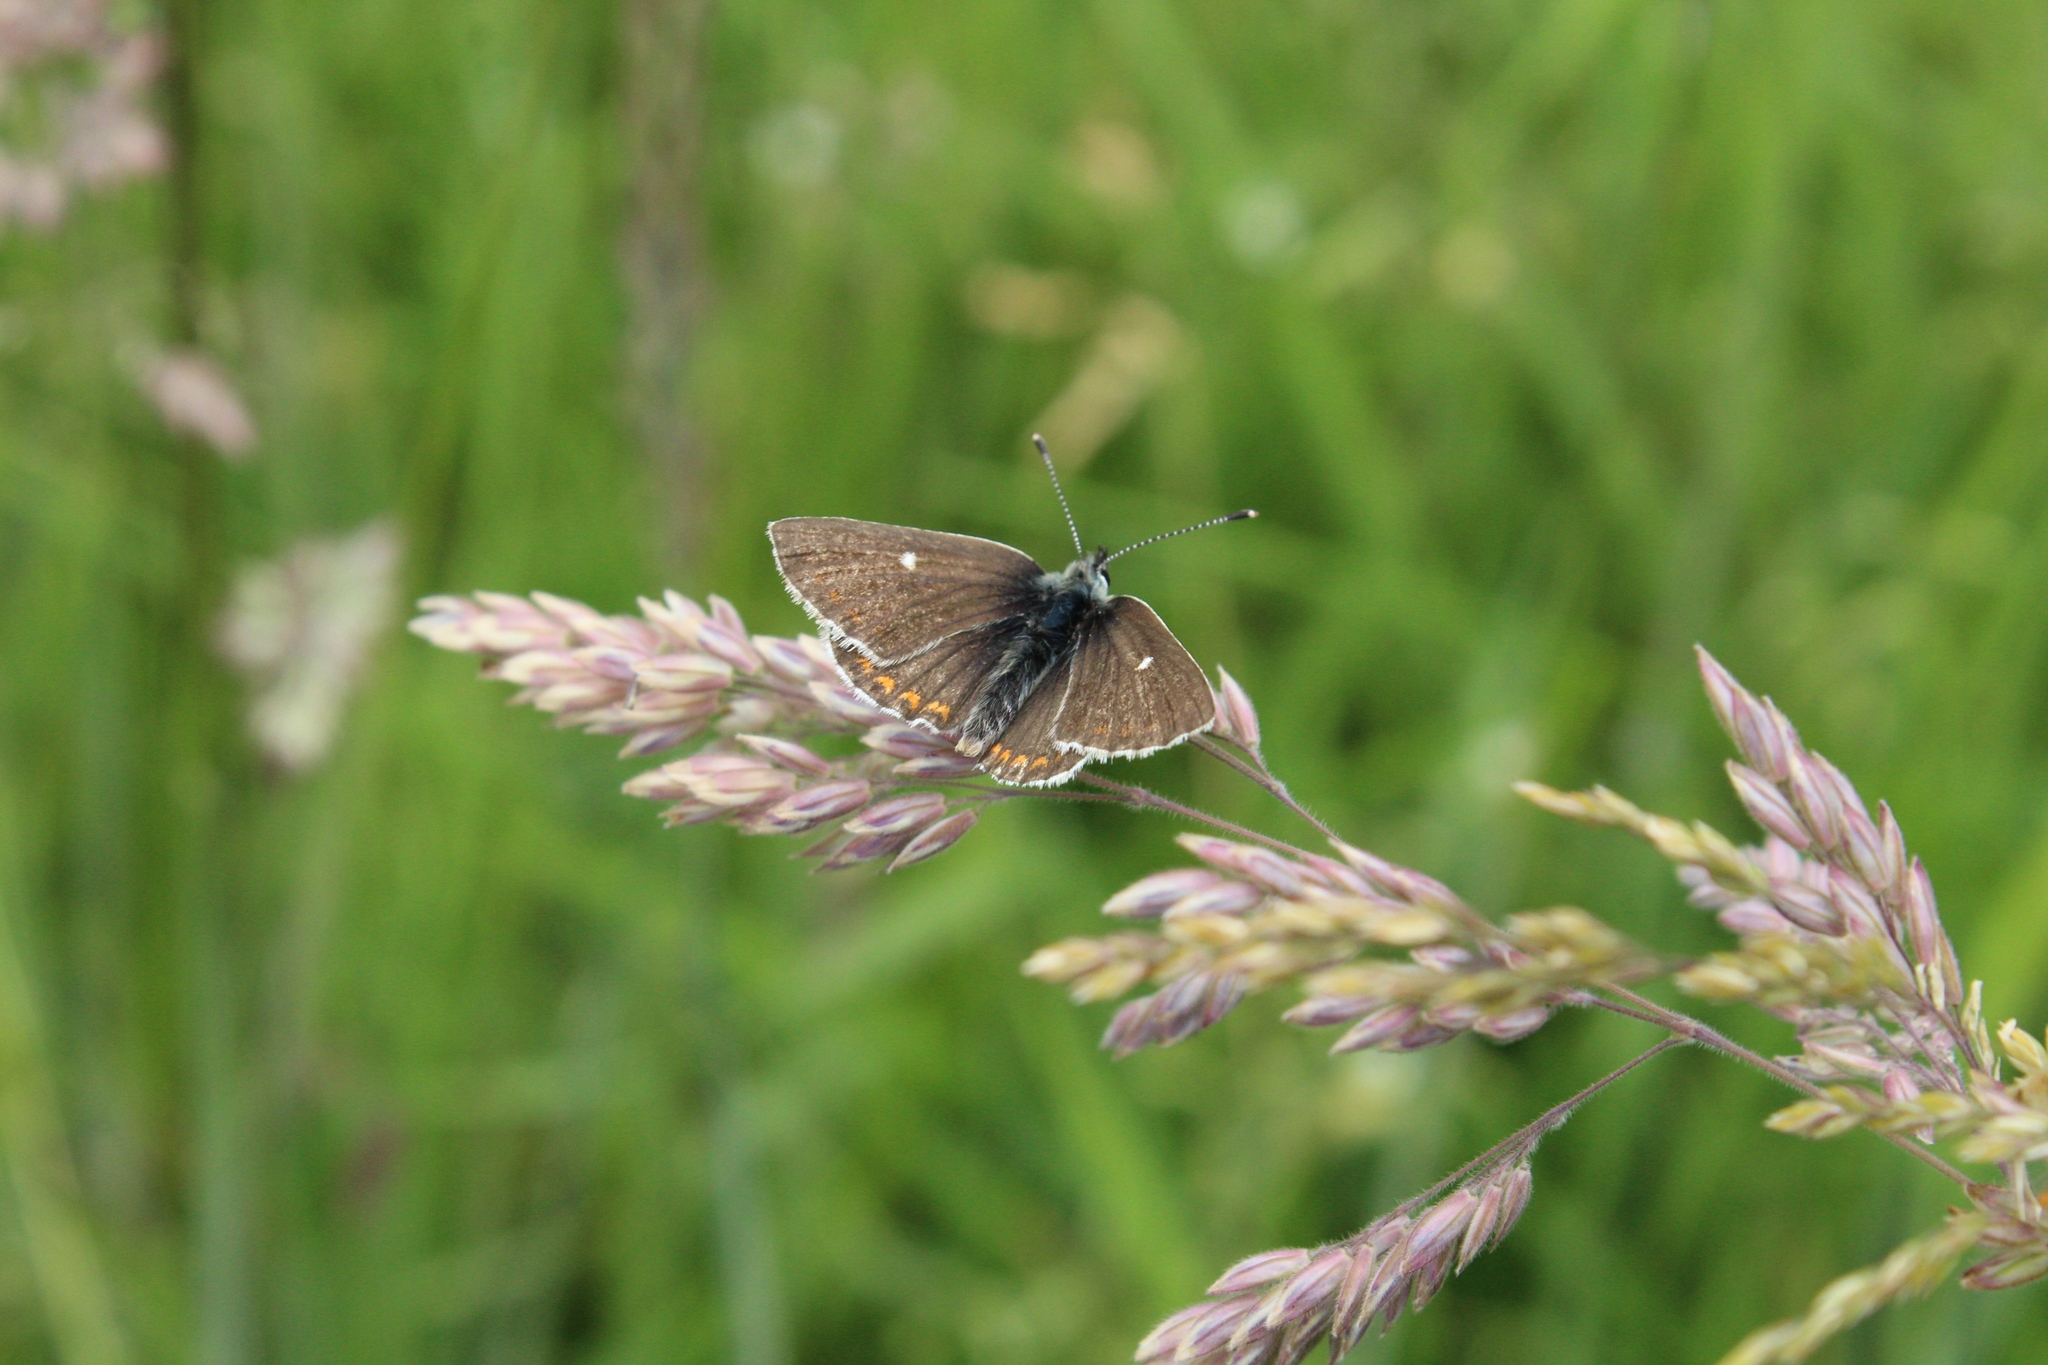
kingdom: Animalia
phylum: Arthropoda
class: Insecta
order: Lepidoptera
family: Lycaenidae
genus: Aricia
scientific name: Aricia artaxerxes
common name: Northern brown argus
